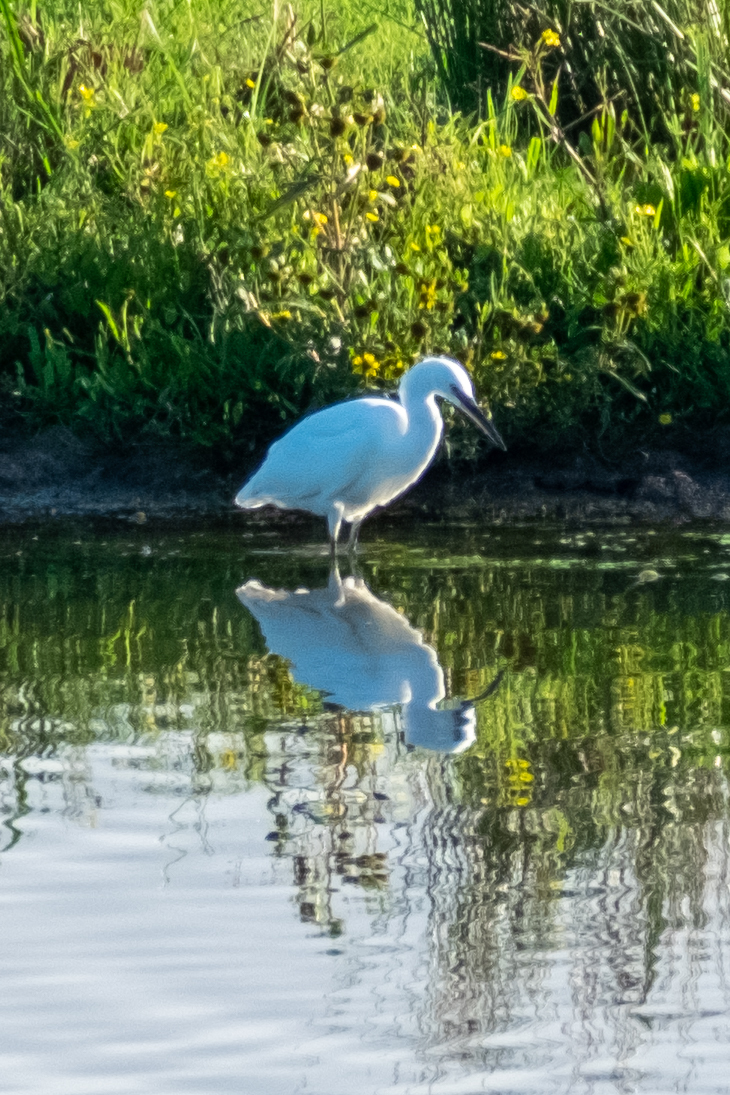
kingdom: Animalia
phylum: Chordata
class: Aves
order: Pelecaniformes
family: Ardeidae
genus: Egretta
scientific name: Egretta garzetta
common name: Little egret
